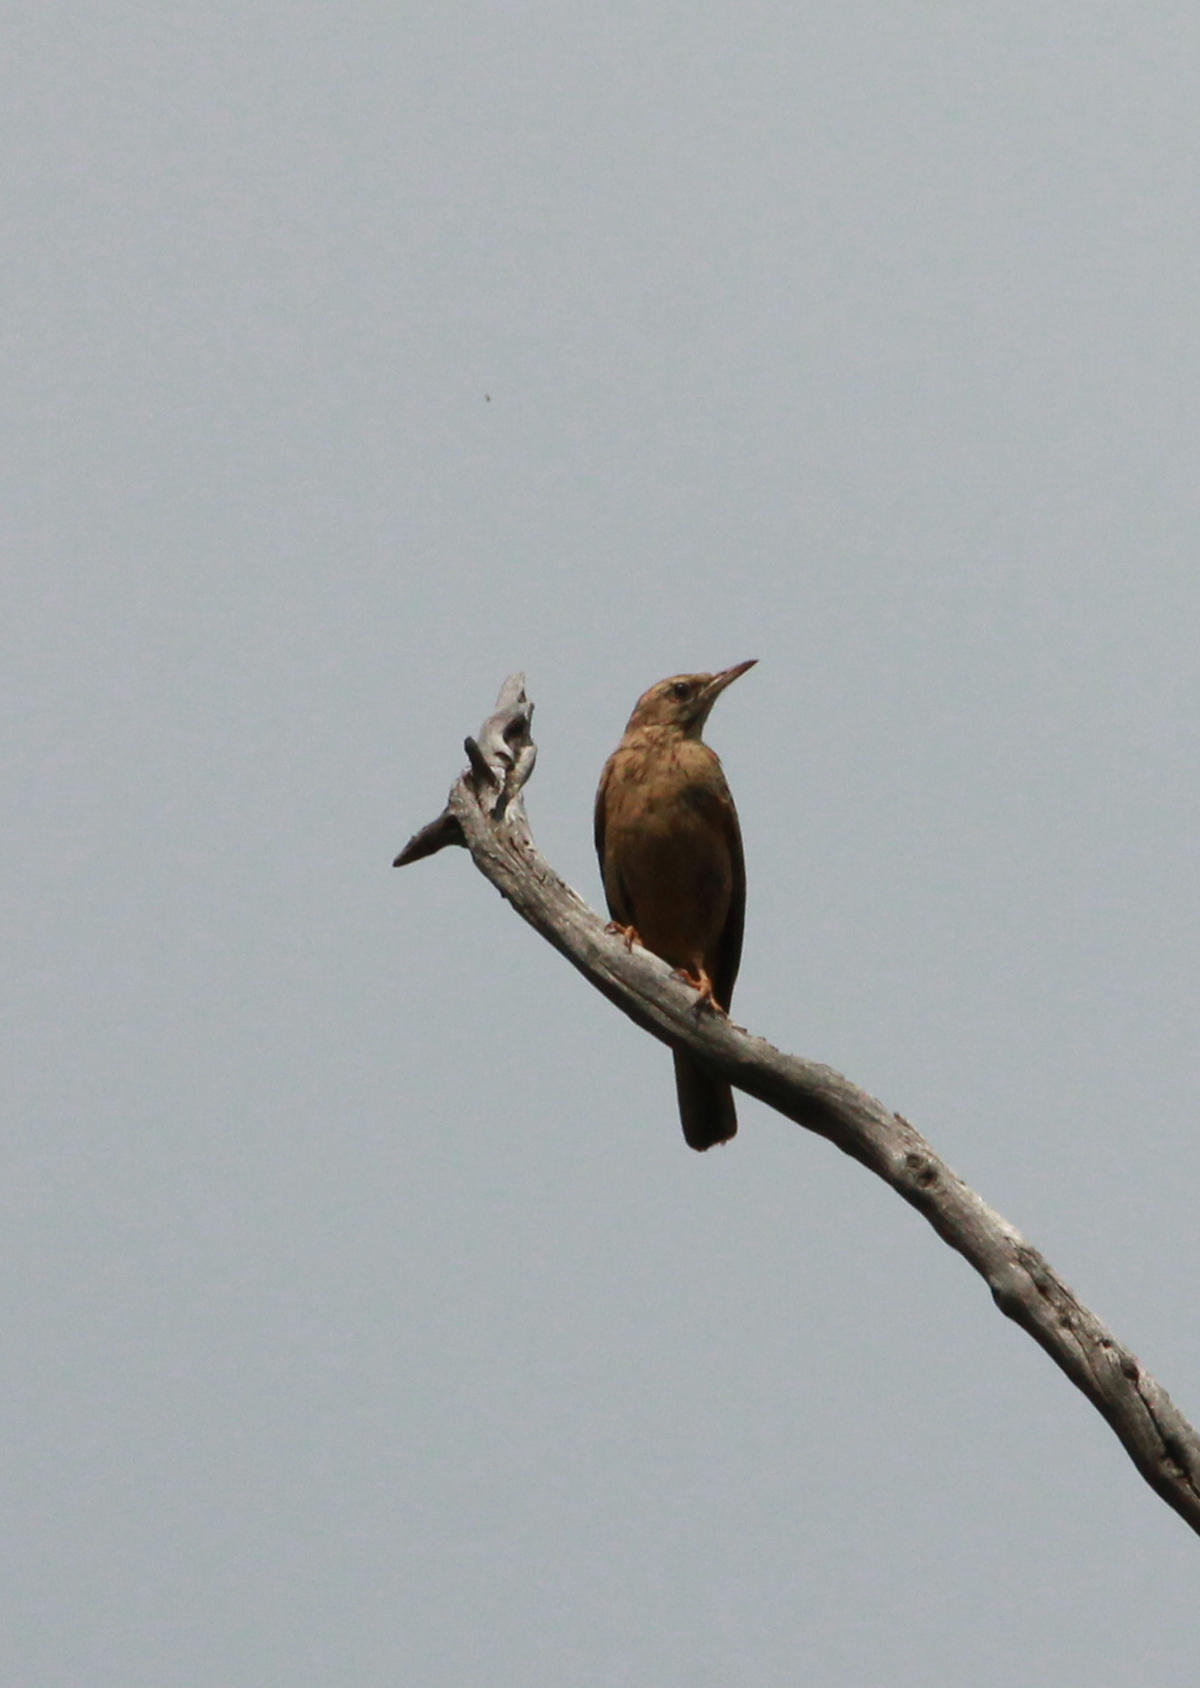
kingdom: Animalia
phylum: Chordata
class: Aves
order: Passeriformes
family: Turdidae
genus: Turdus
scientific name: Turdus smithi
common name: Karoo thrush
